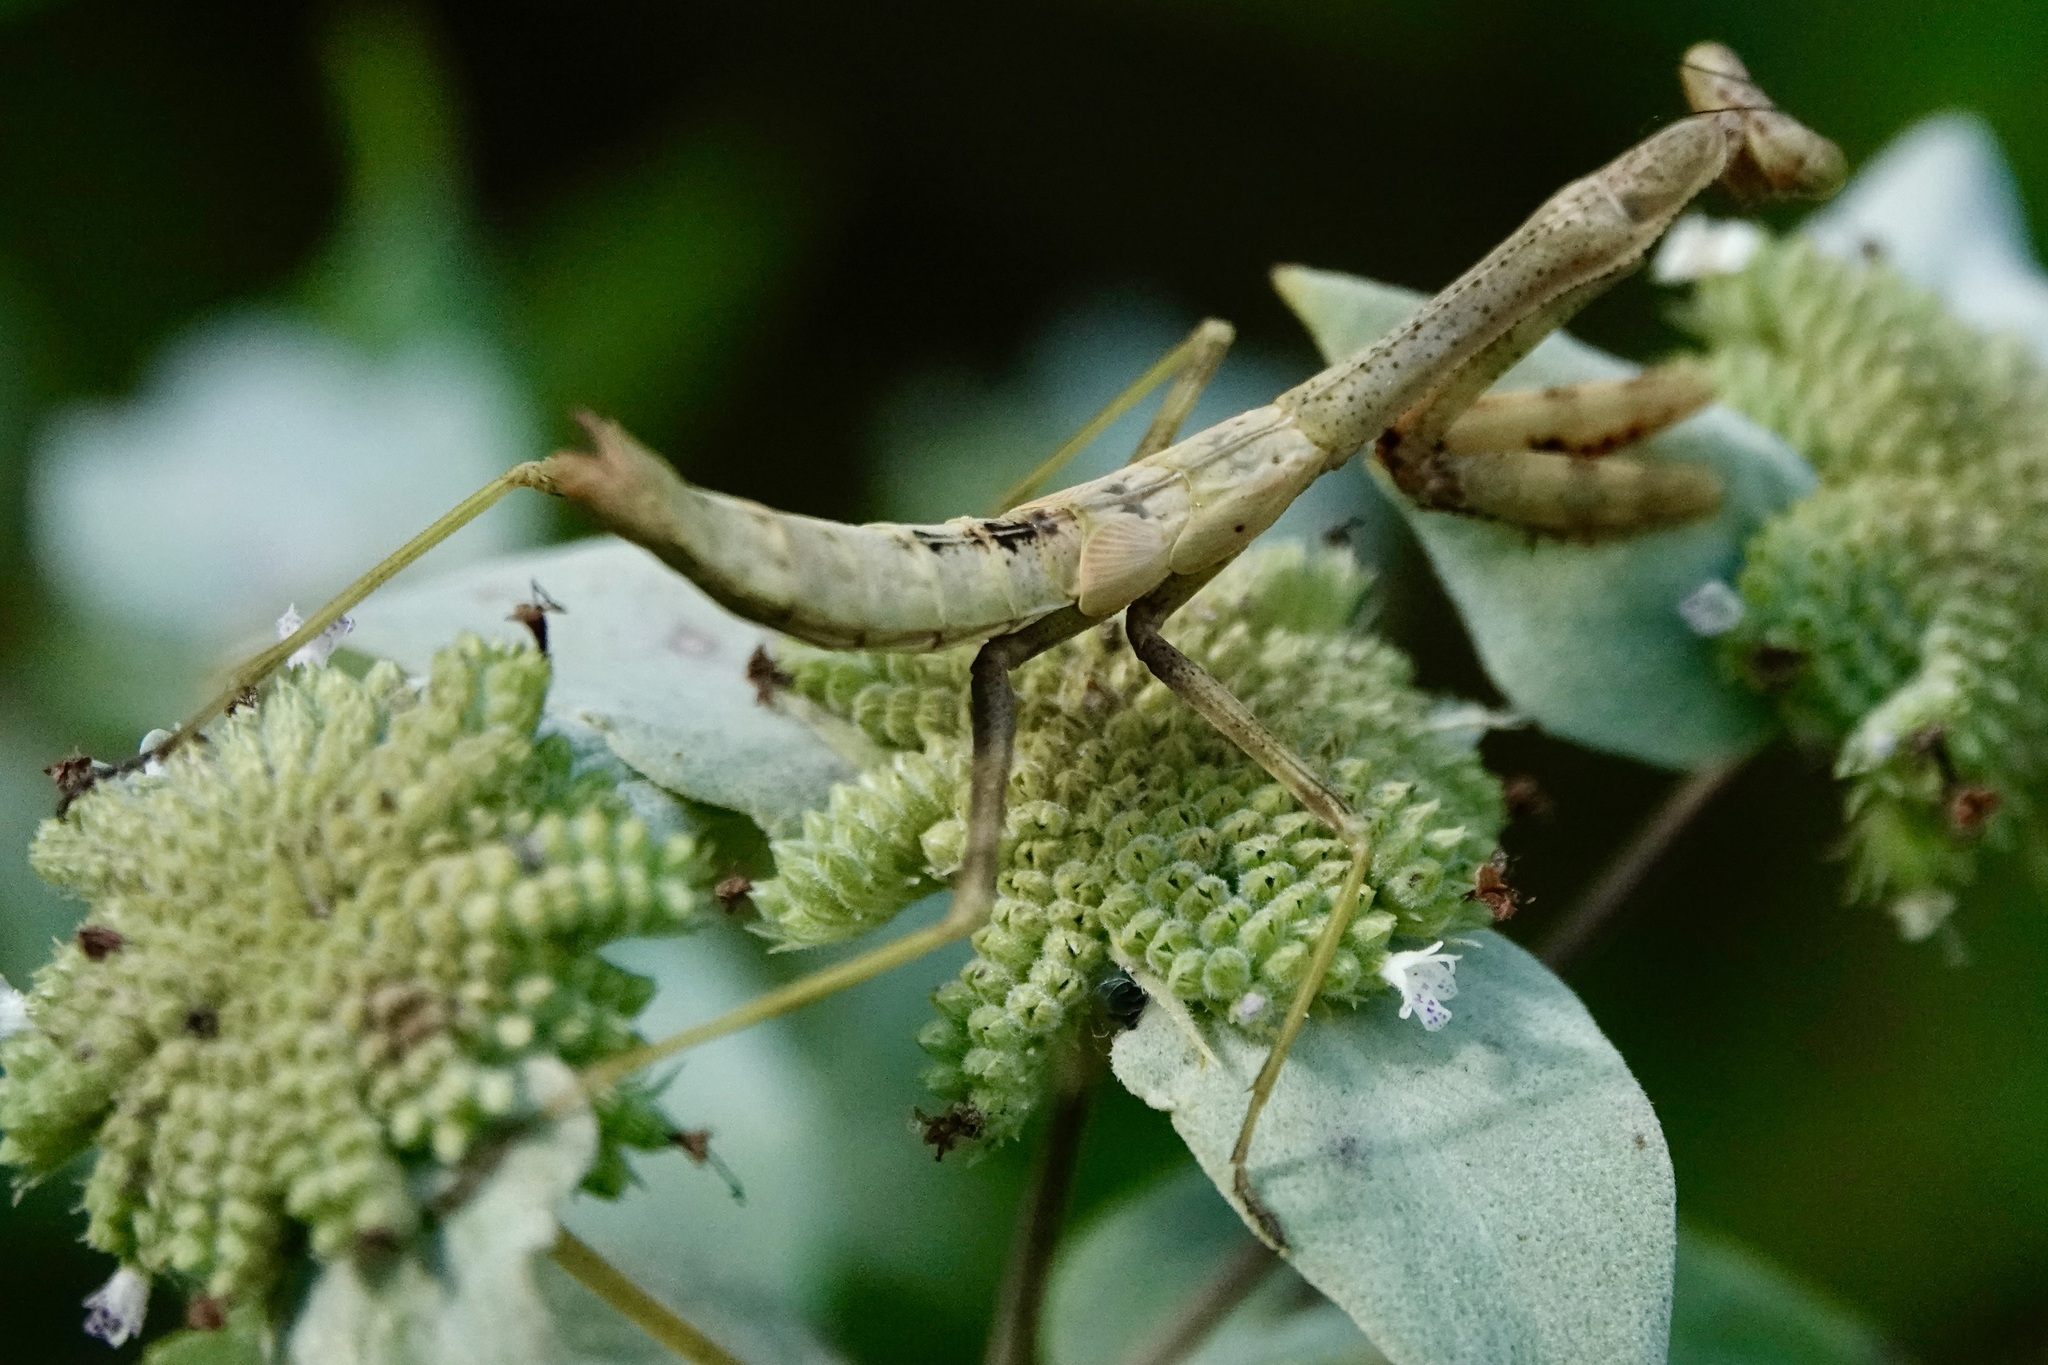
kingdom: Animalia
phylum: Arthropoda
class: Insecta
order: Mantodea
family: Mantidae
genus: Stagmomantis
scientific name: Stagmomantis carolina
